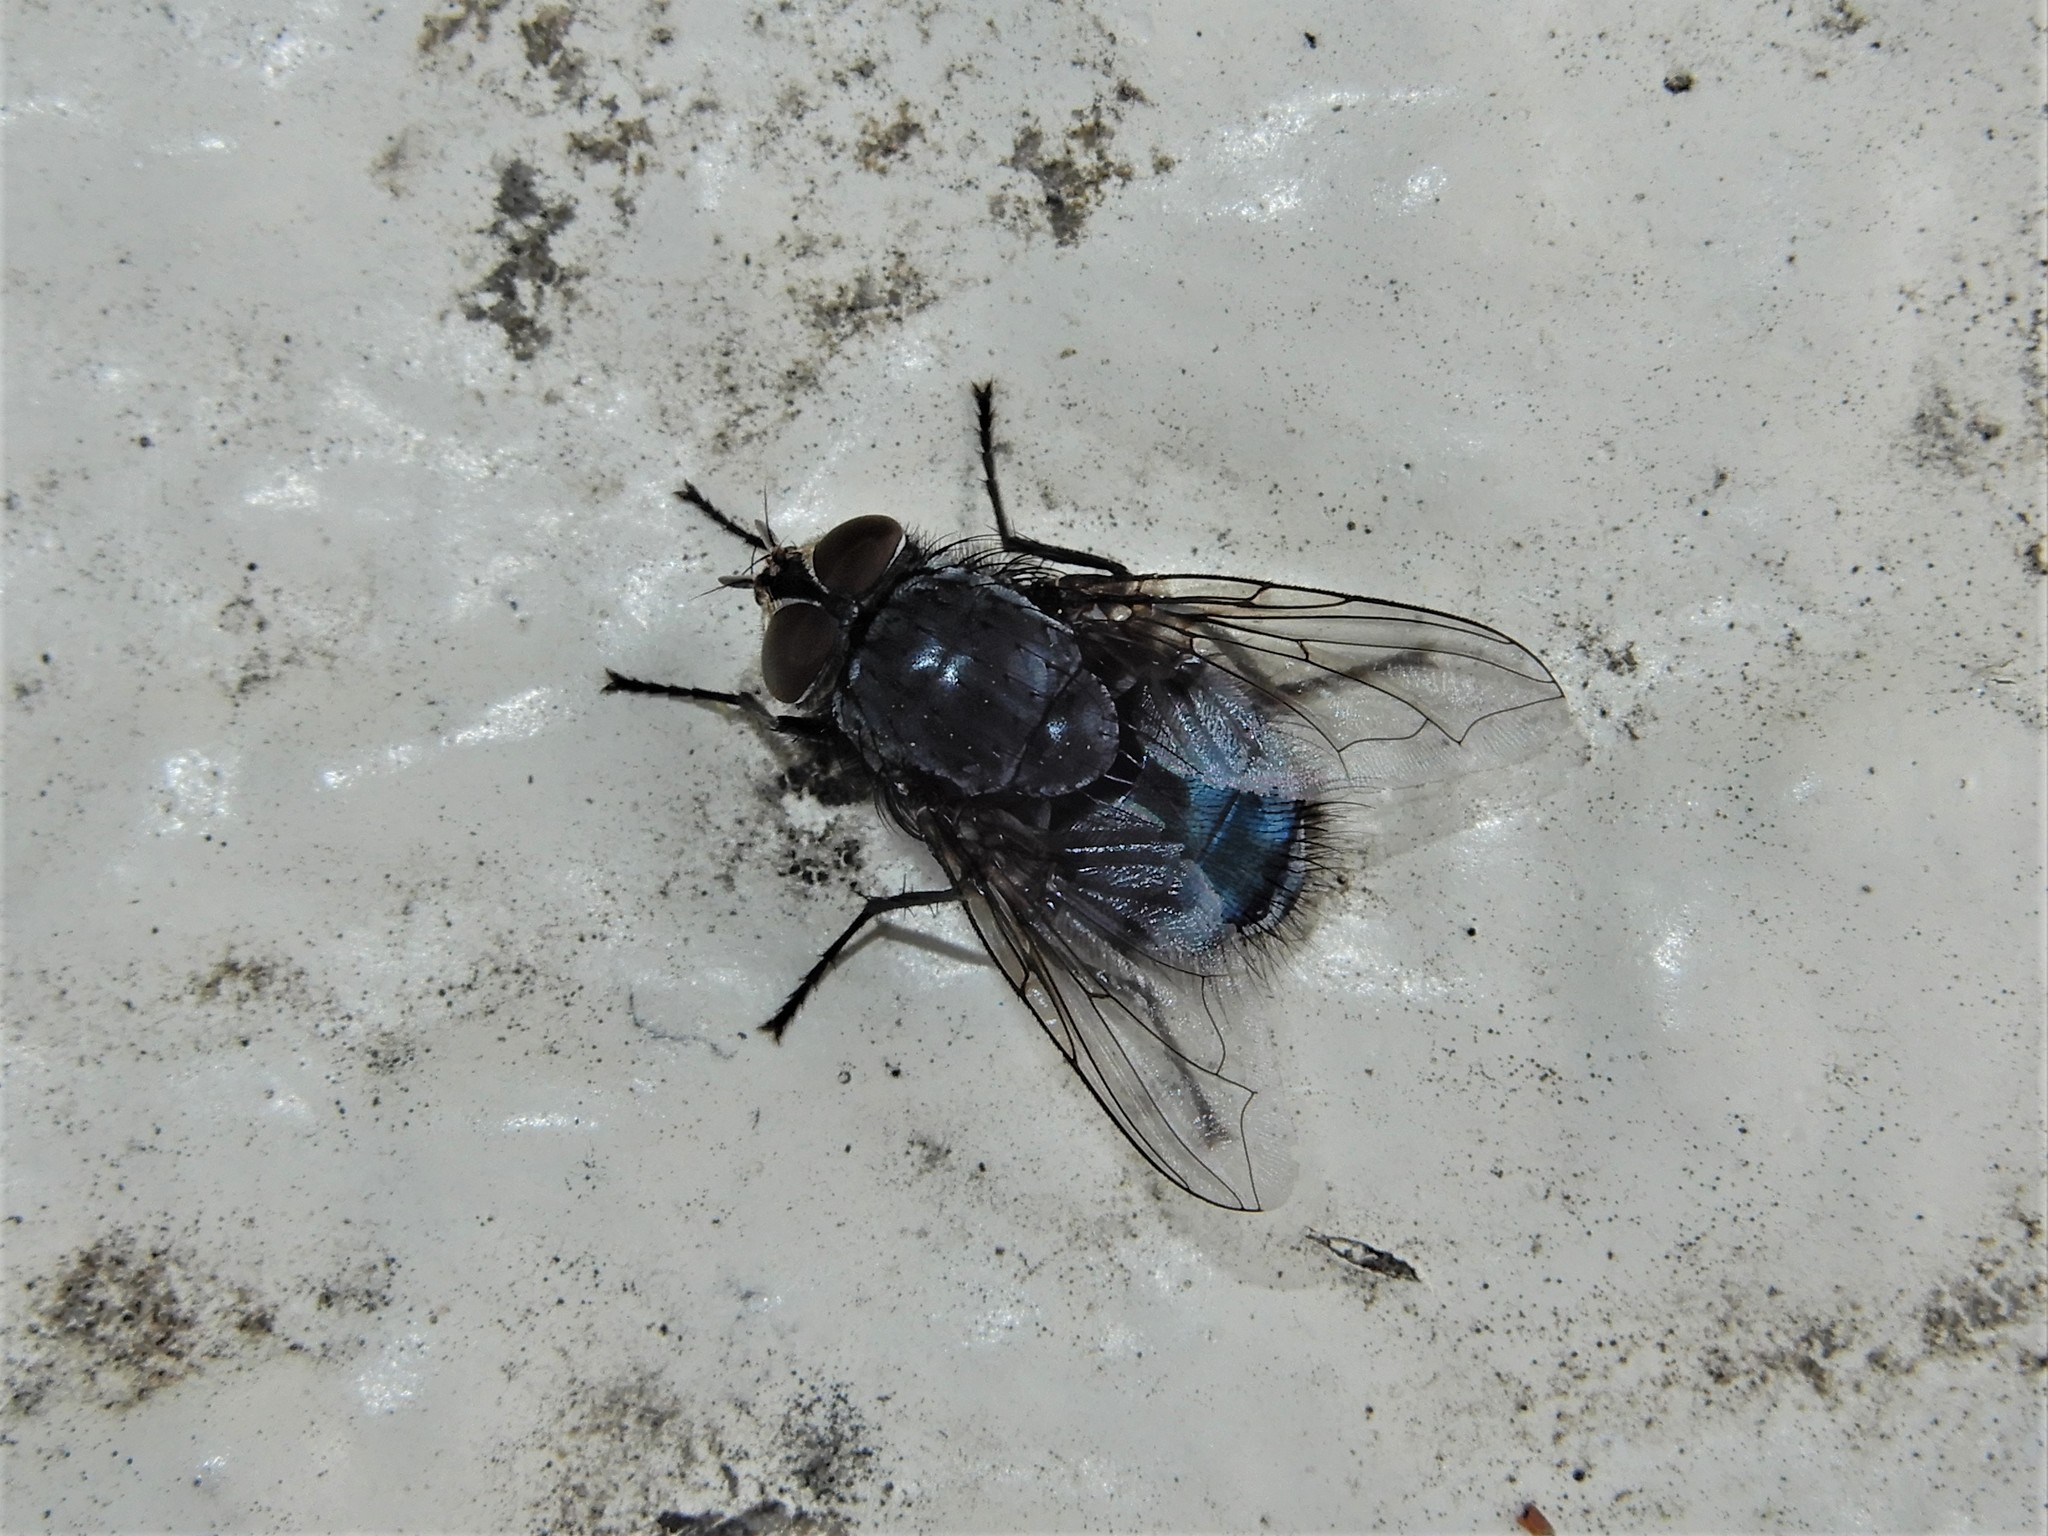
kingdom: Animalia
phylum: Arthropoda
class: Insecta
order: Diptera
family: Calliphoridae
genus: Calliphora
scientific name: Calliphora vicina
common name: Common blow flie
